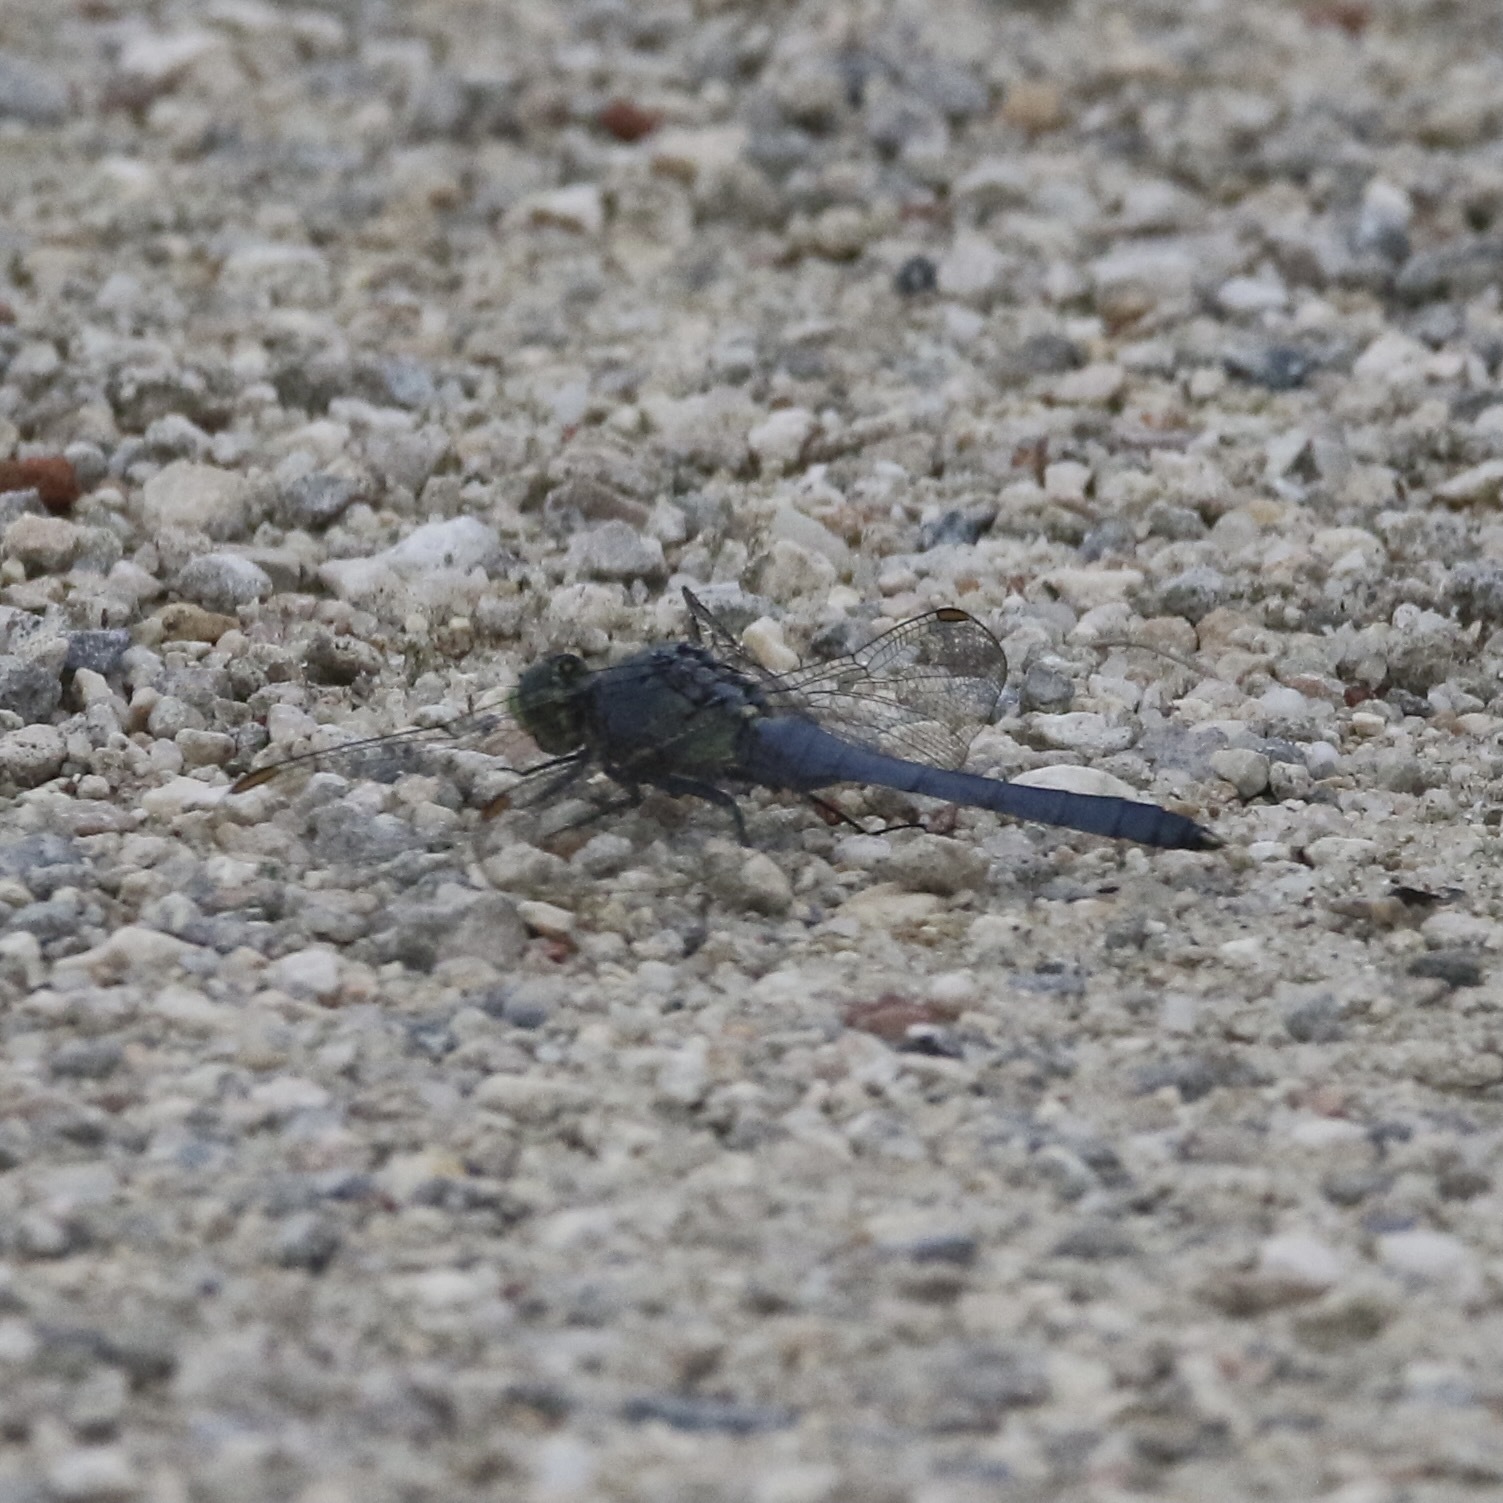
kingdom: Animalia
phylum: Arthropoda
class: Insecta
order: Odonata
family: Libellulidae
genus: Erythemis
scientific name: Erythemis simplicicollis
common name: Eastern pondhawk
